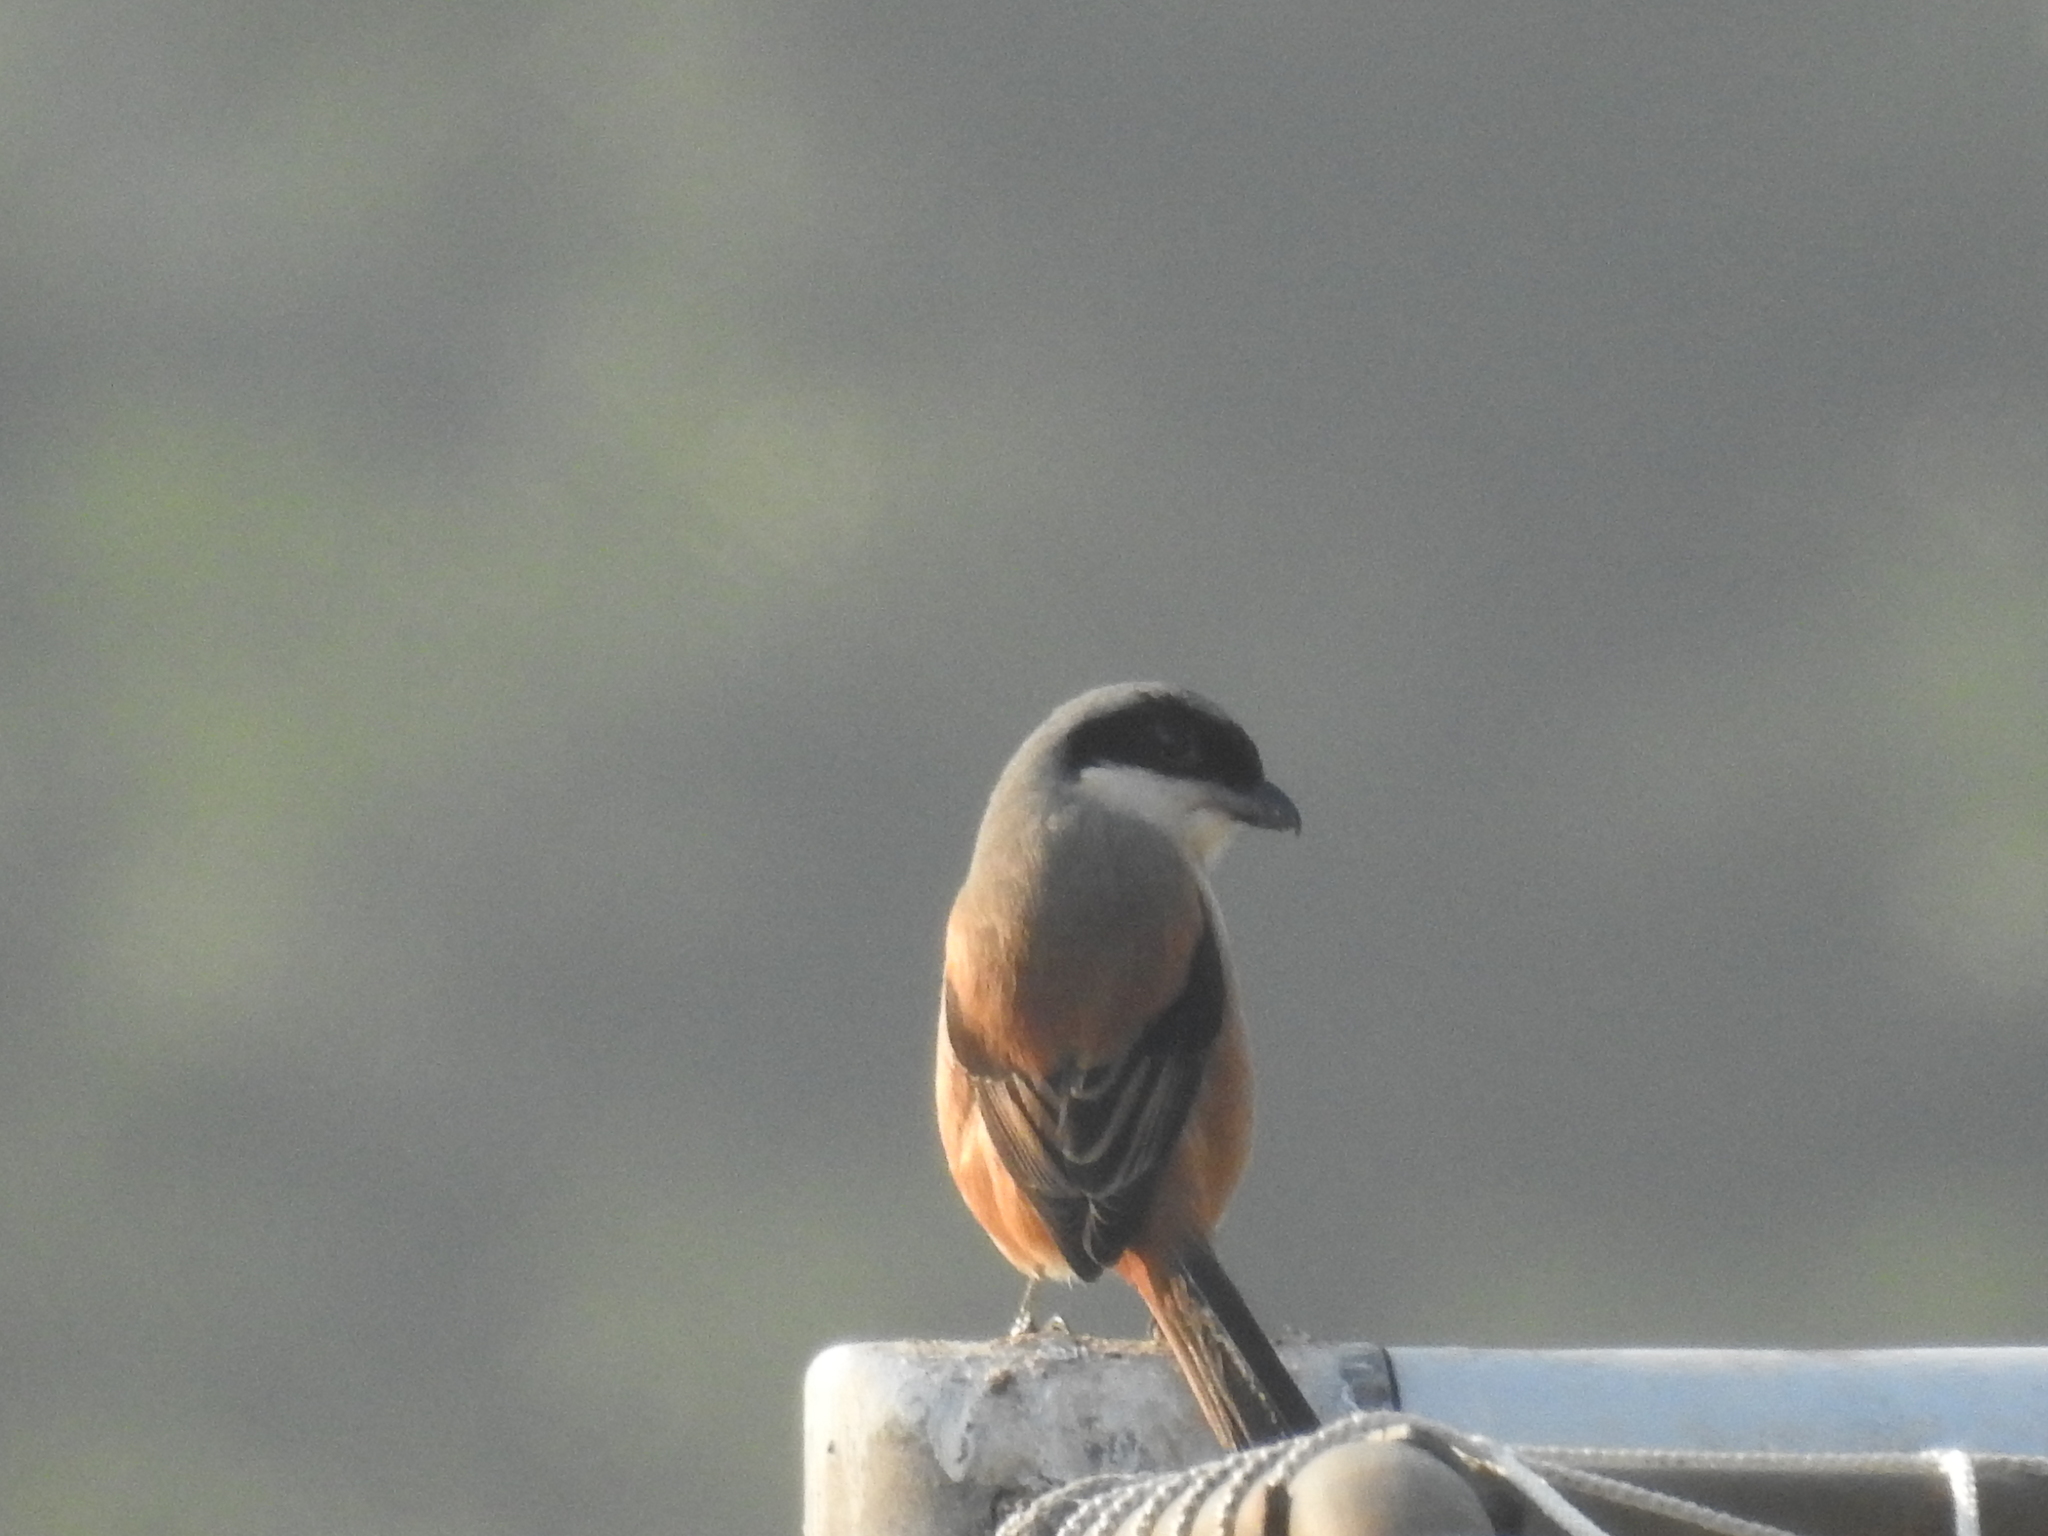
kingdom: Animalia
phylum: Chordata
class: Aves
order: Passeriformes
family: Laniidae
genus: Lanius
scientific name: Lanius schach
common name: Long-tailed shrike
